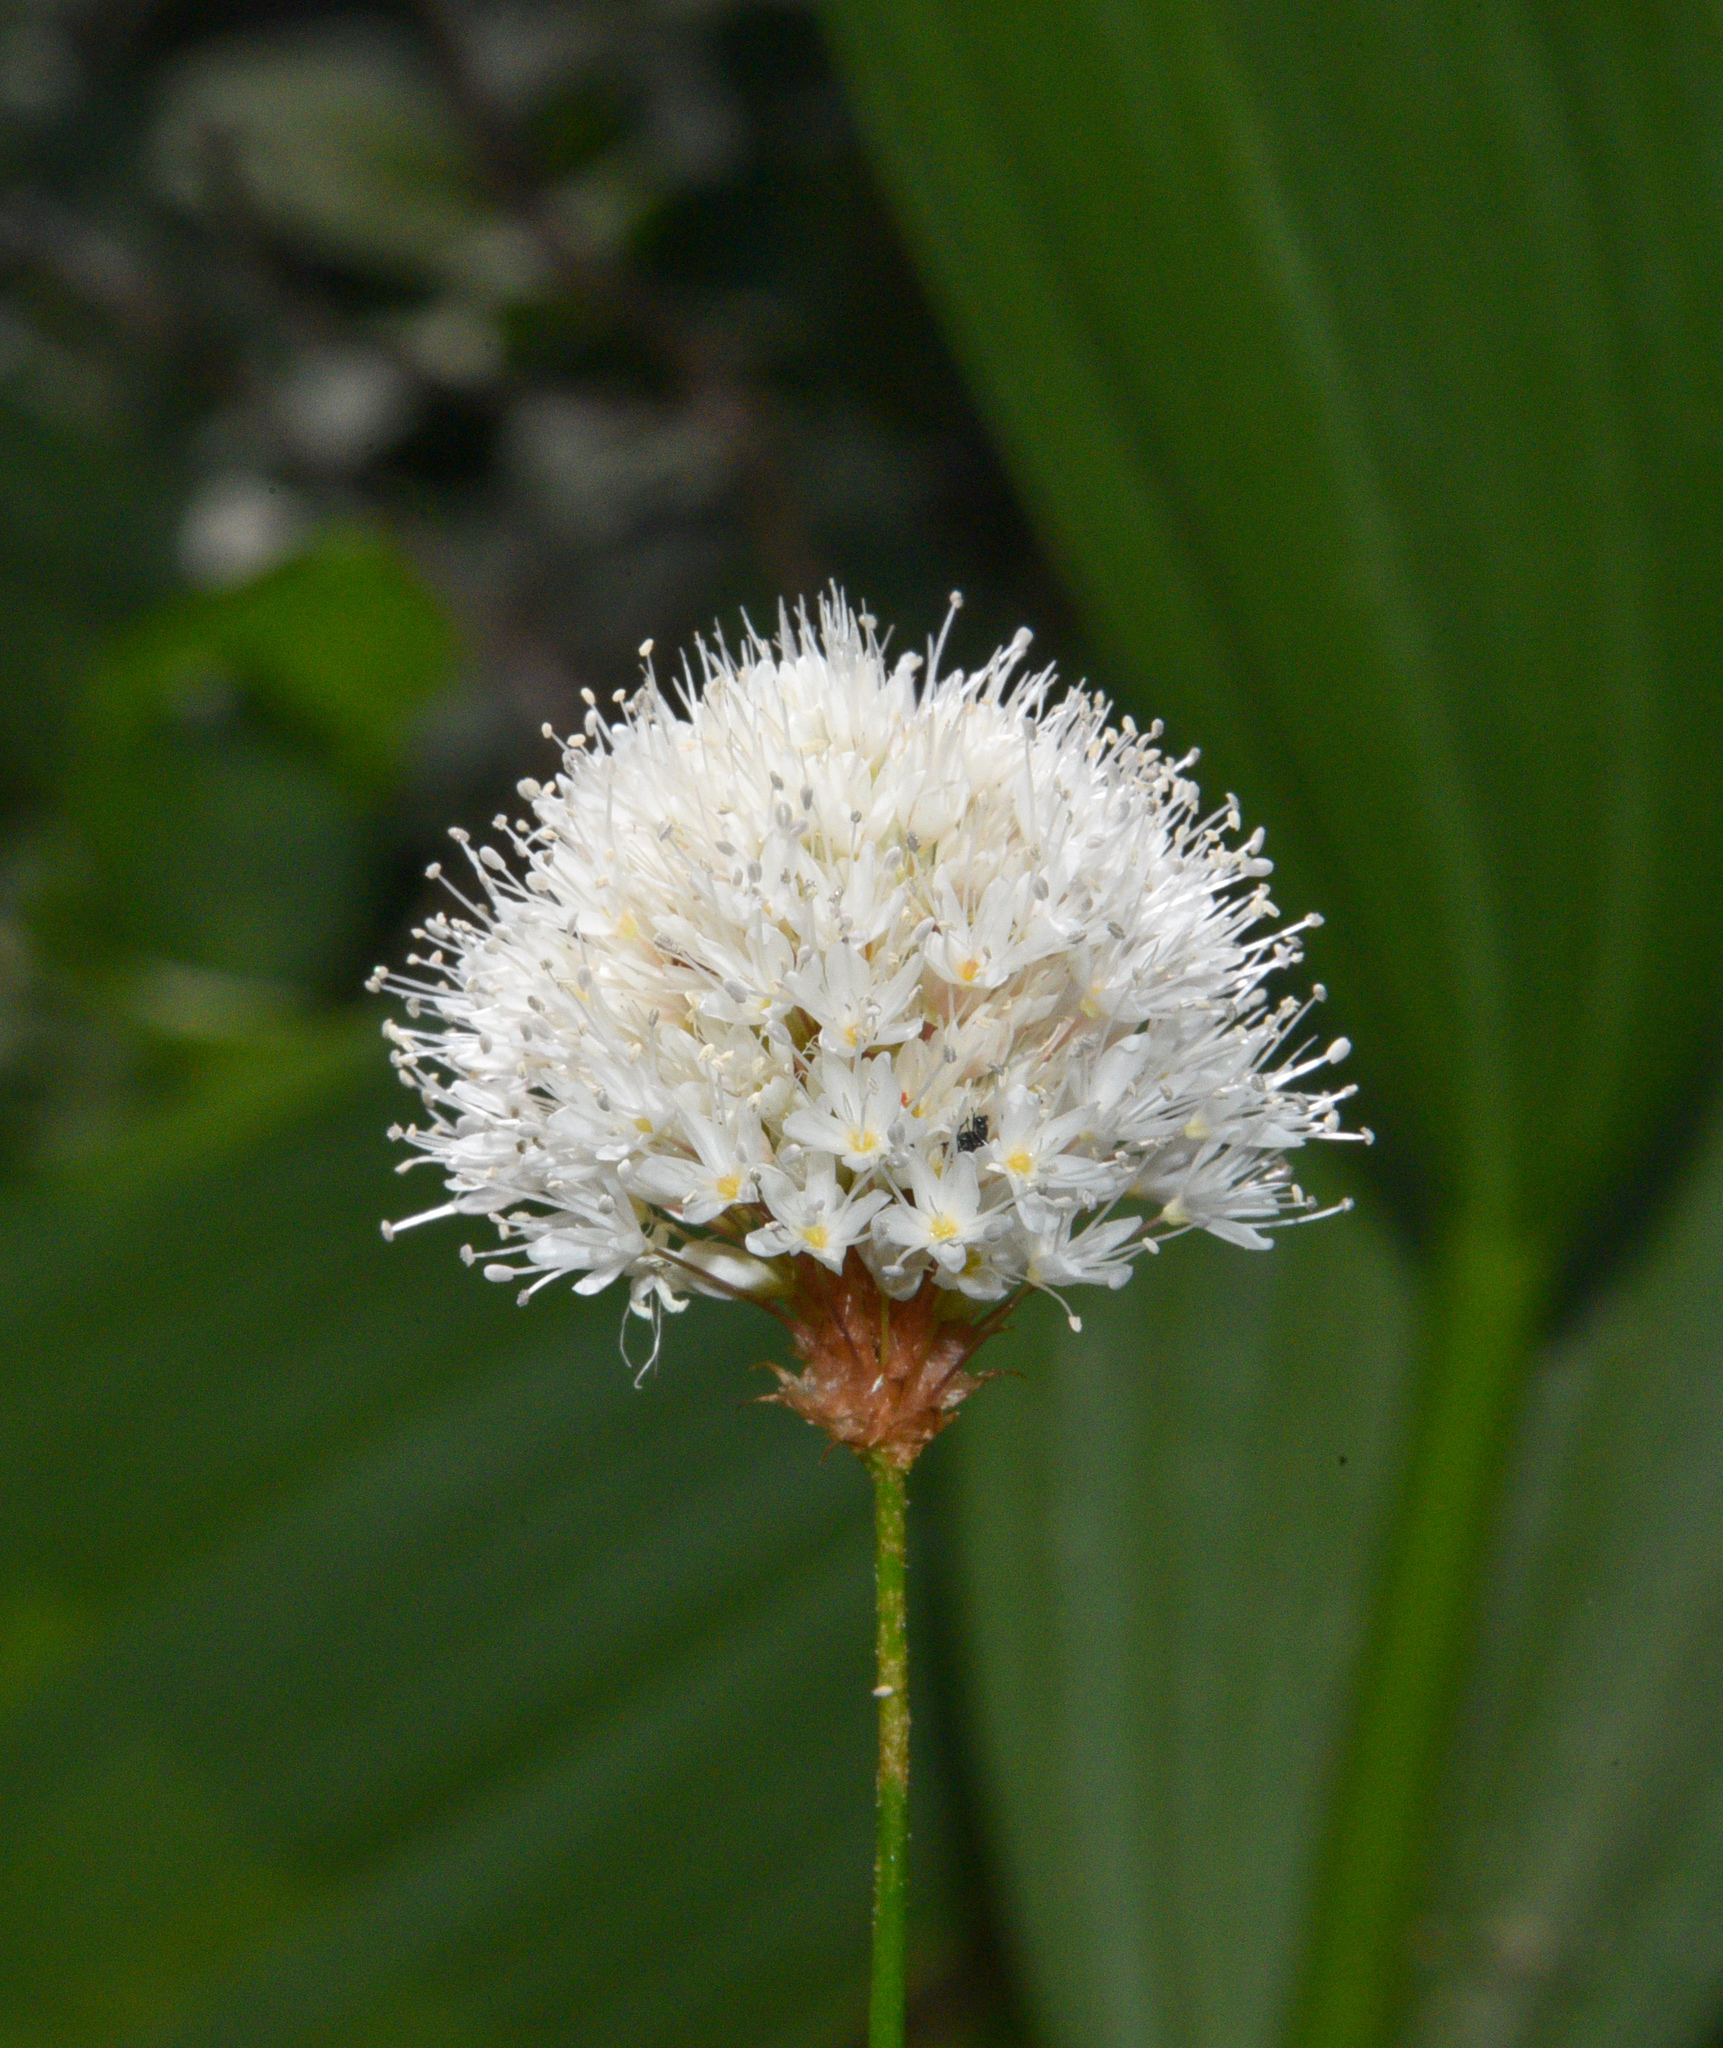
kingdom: Plantae
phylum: Tracheophyta
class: Magnoliopsida
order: Caryophyllales
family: Polygonaceae
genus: Bistorta
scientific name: Bistorta bistortoides
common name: American bistort
